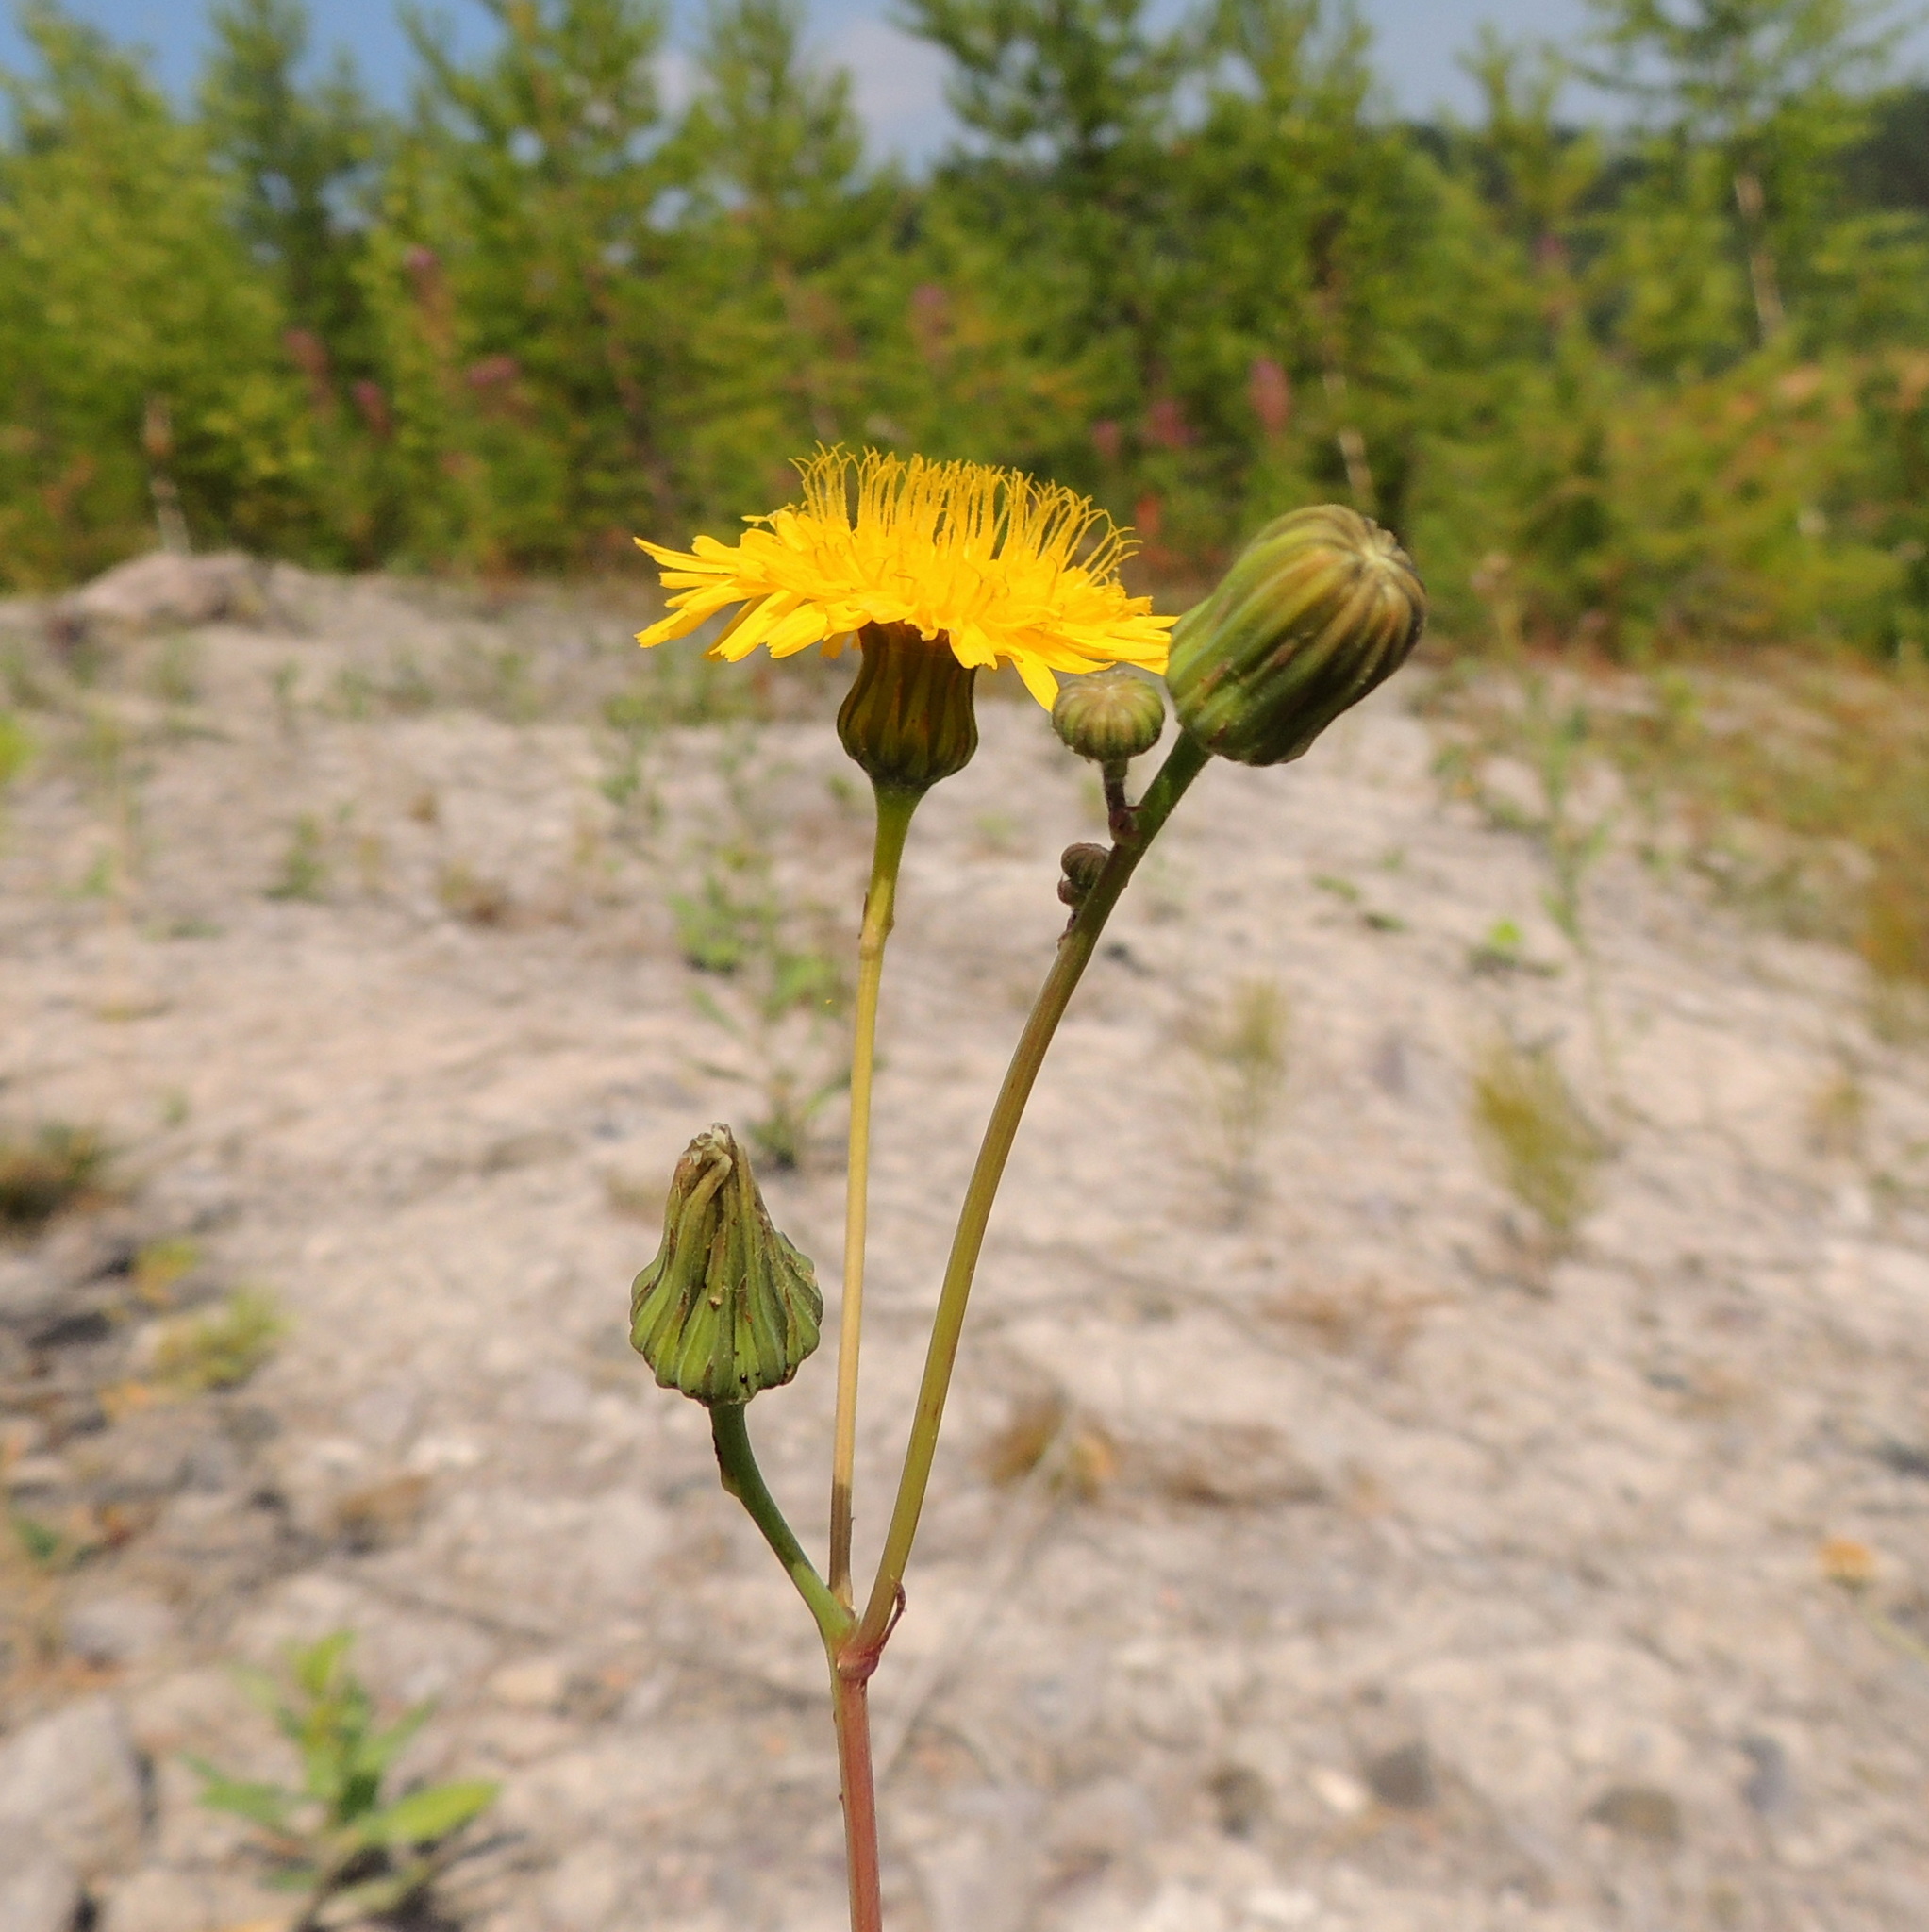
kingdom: Plantae
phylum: Tracheophyta
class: Magnoliopsida
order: Asterales
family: Asteraceae
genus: Sonchus
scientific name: Sonchus arvensis
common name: Perennial sow-thistle
